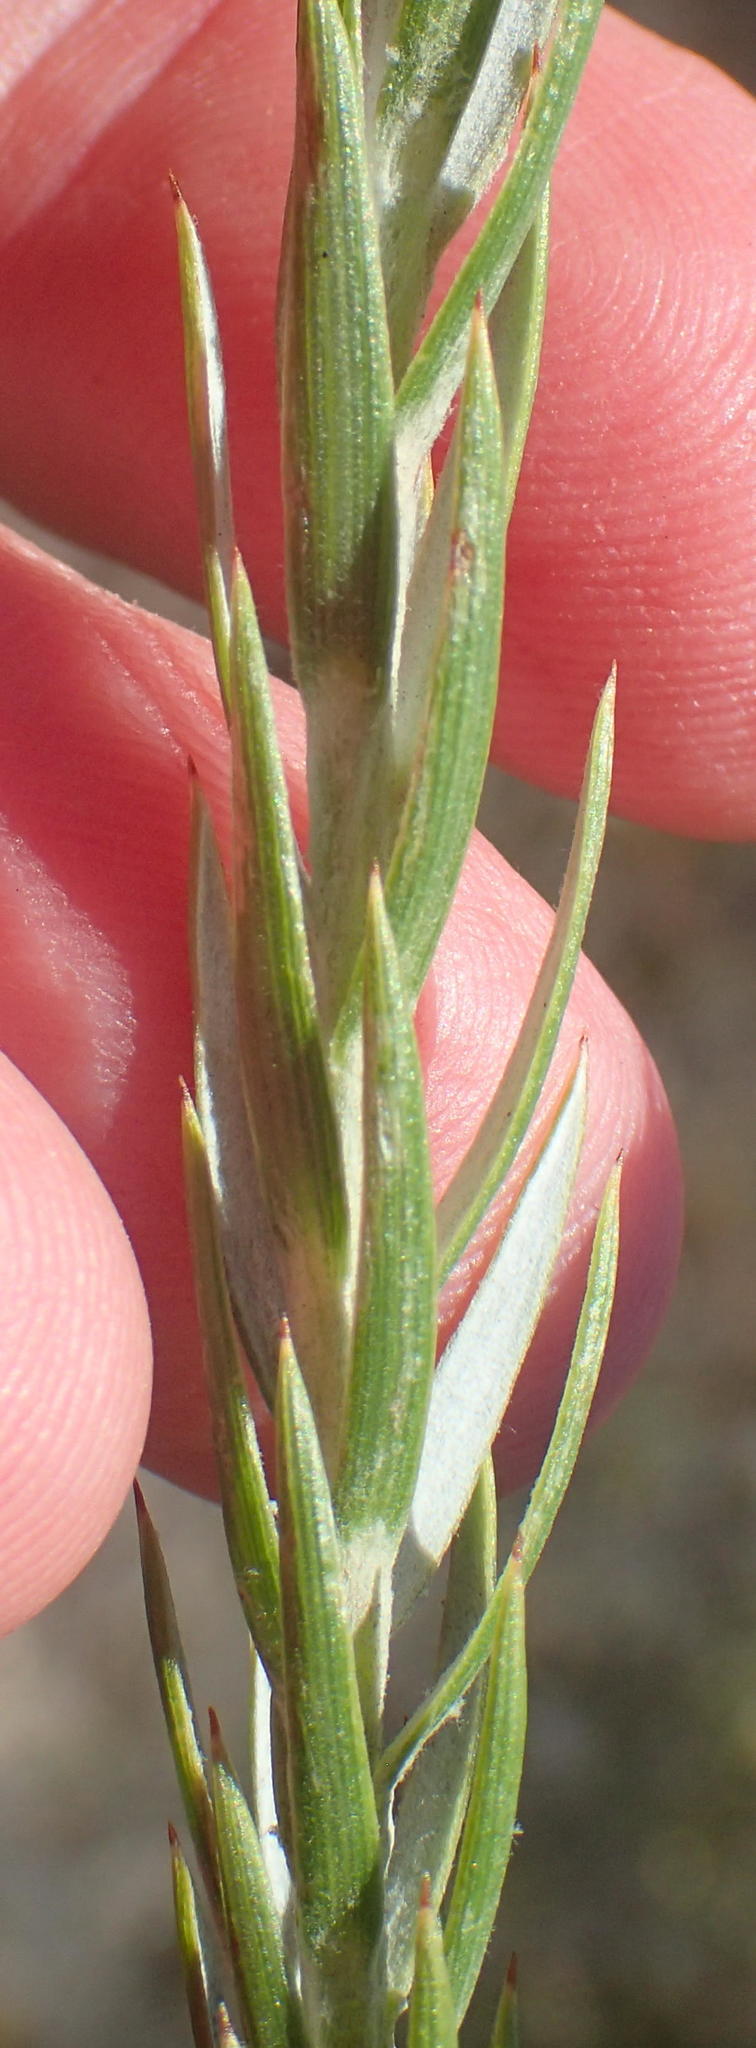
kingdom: Plantae
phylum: Tracheophyta
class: Magnoliopsida
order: Asterales
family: Asteraceae
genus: Oedera
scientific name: Oedera pungens
